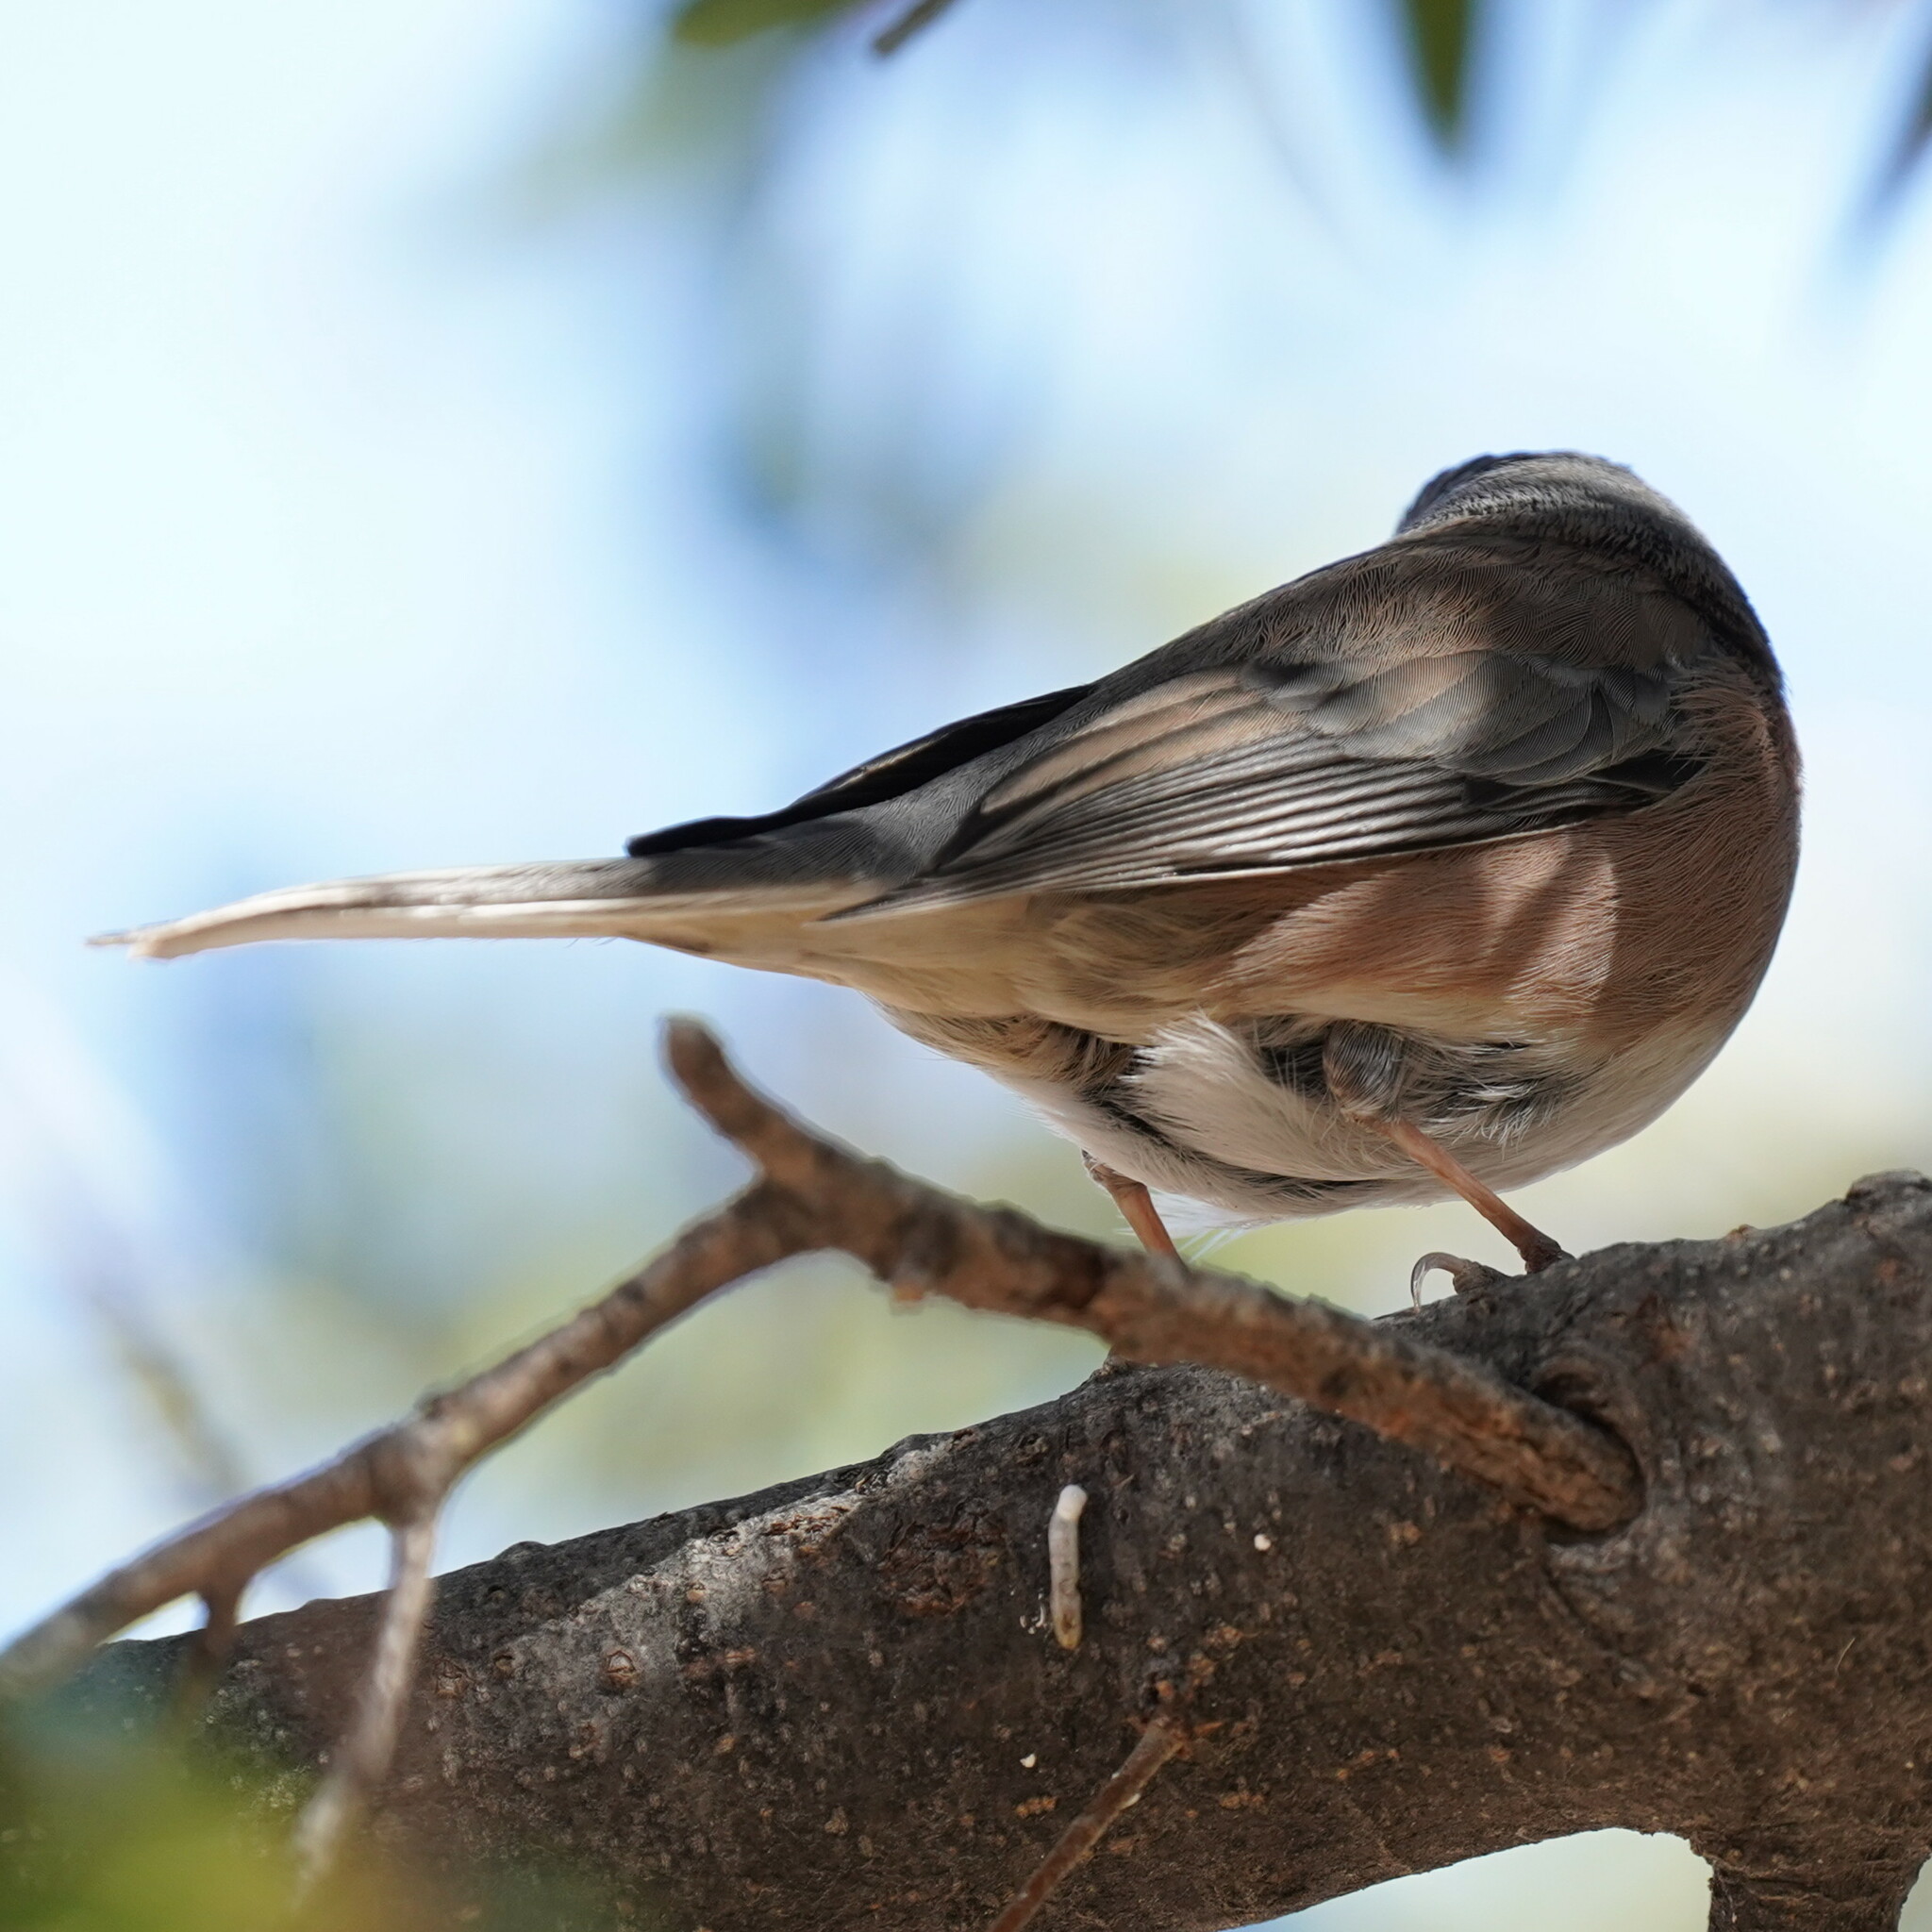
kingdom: Animalia
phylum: Chordata
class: Aves
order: Passeriformes
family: Passerellidae
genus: Junco
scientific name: Junco hyemalis
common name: Dark-eyed junco
